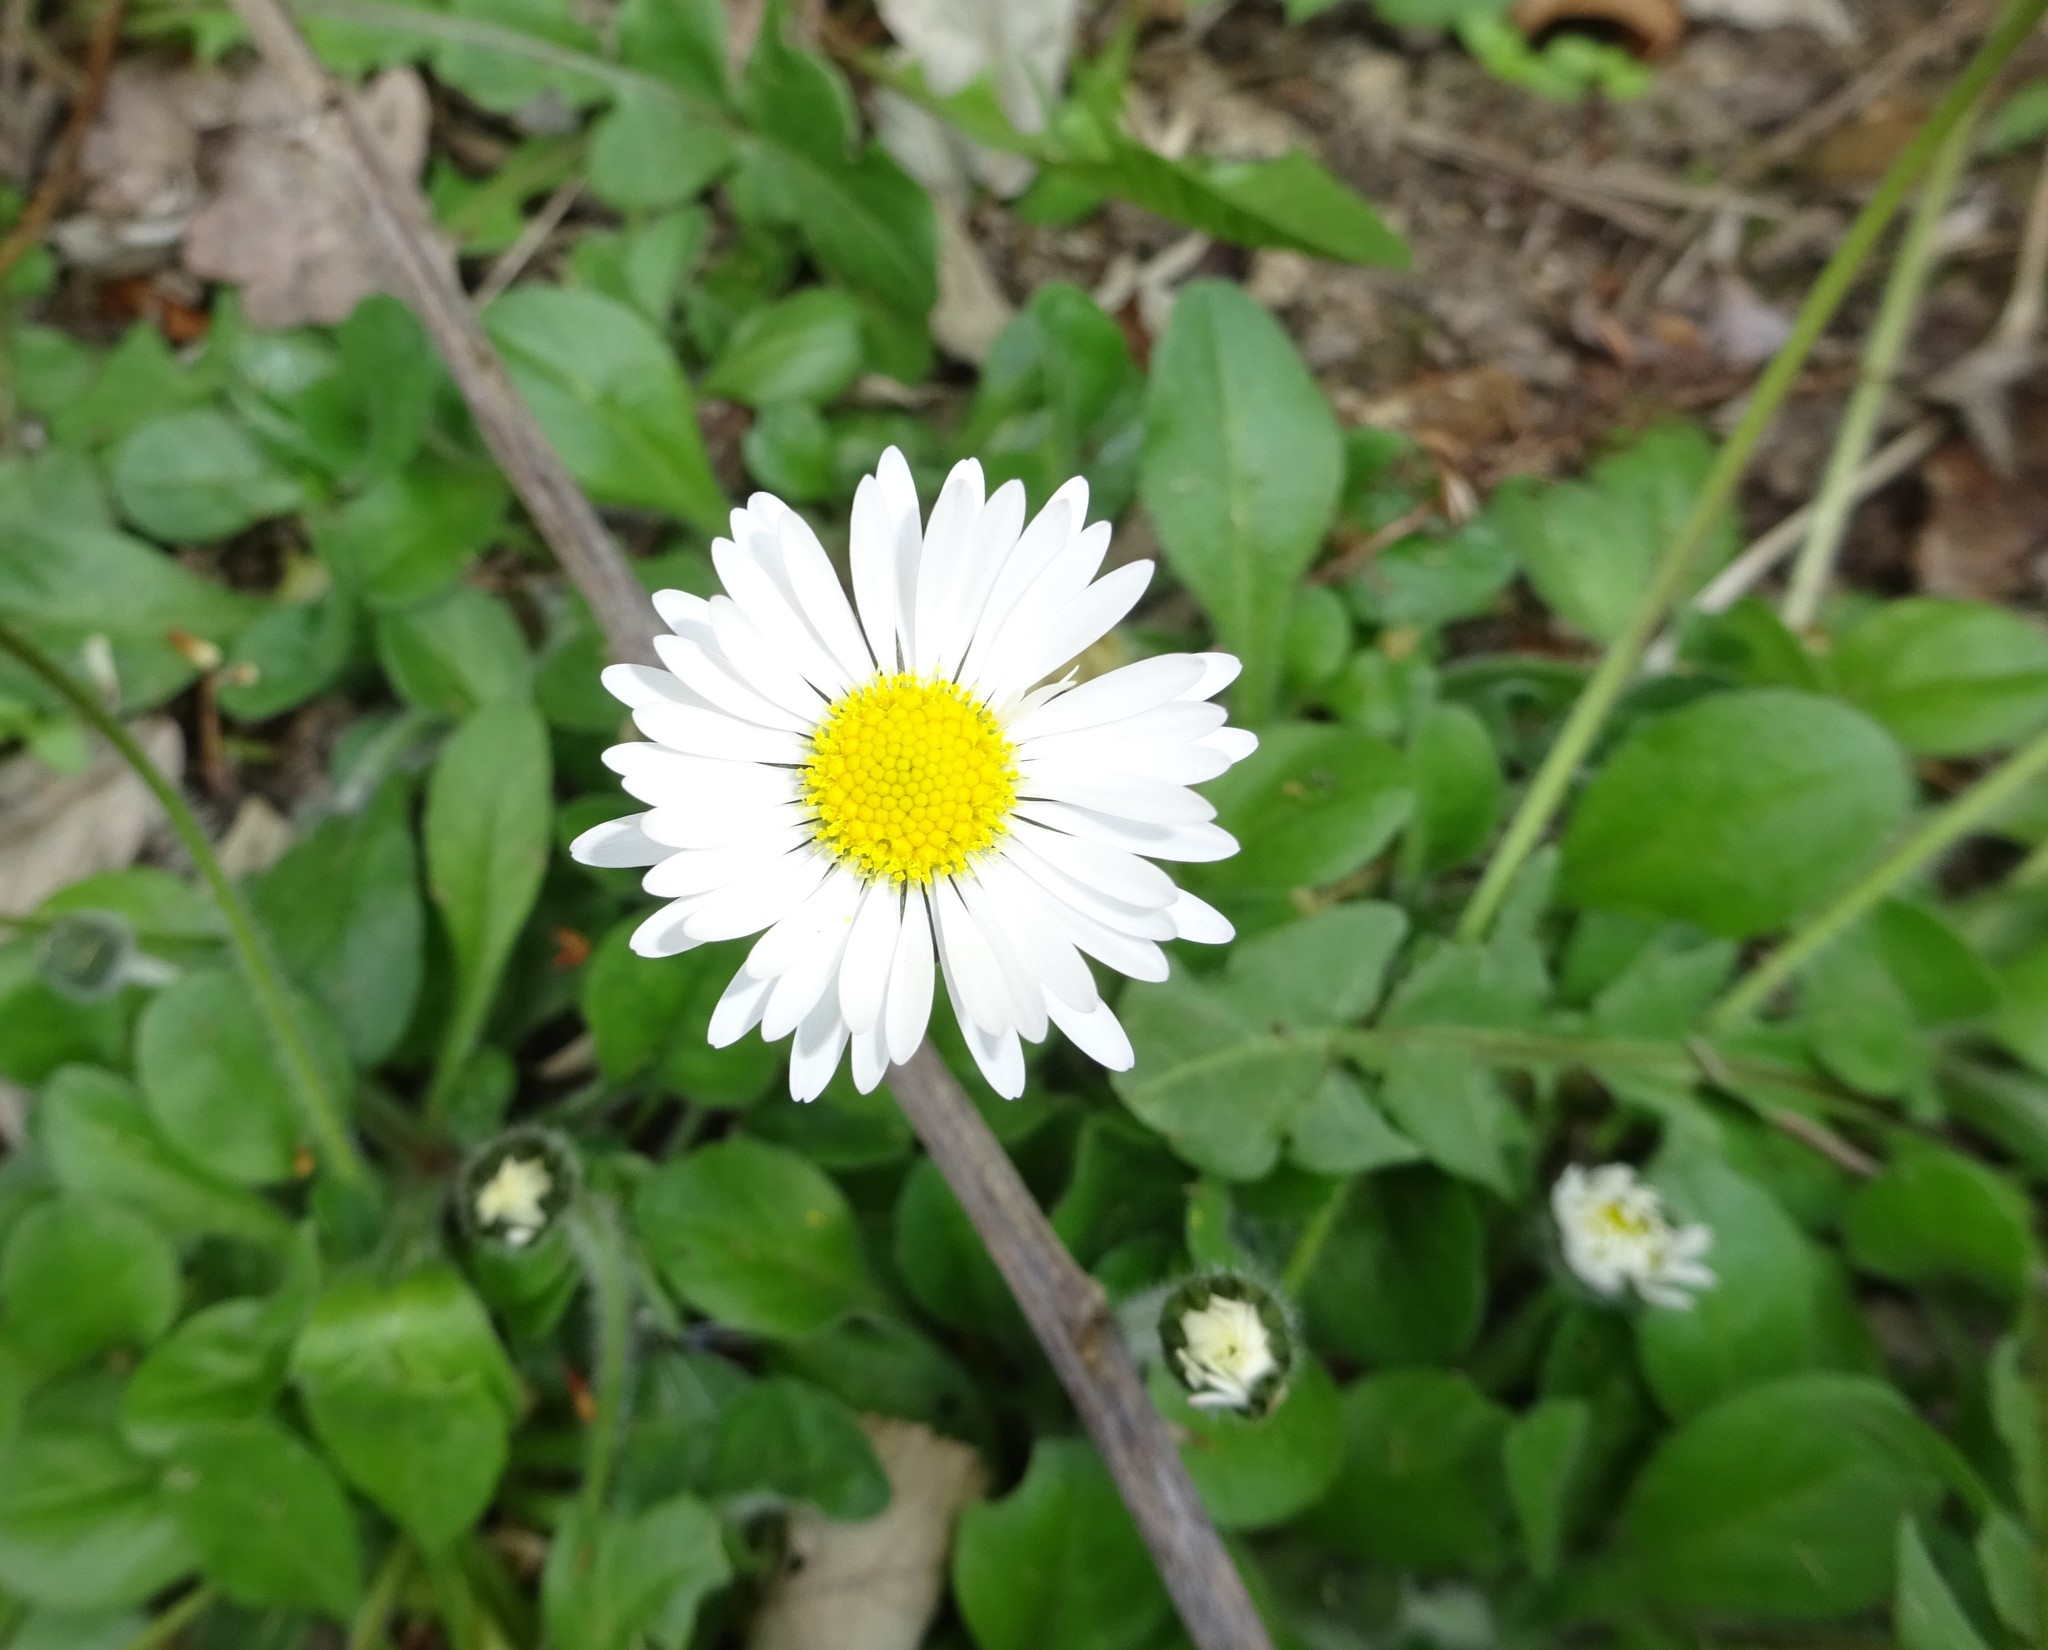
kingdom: Plantae
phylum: Tracheophyta
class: Magnoliopsida
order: Asterales
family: Asteraceae
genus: Bellis
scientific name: Bellis perennis
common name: Lawndaisy
